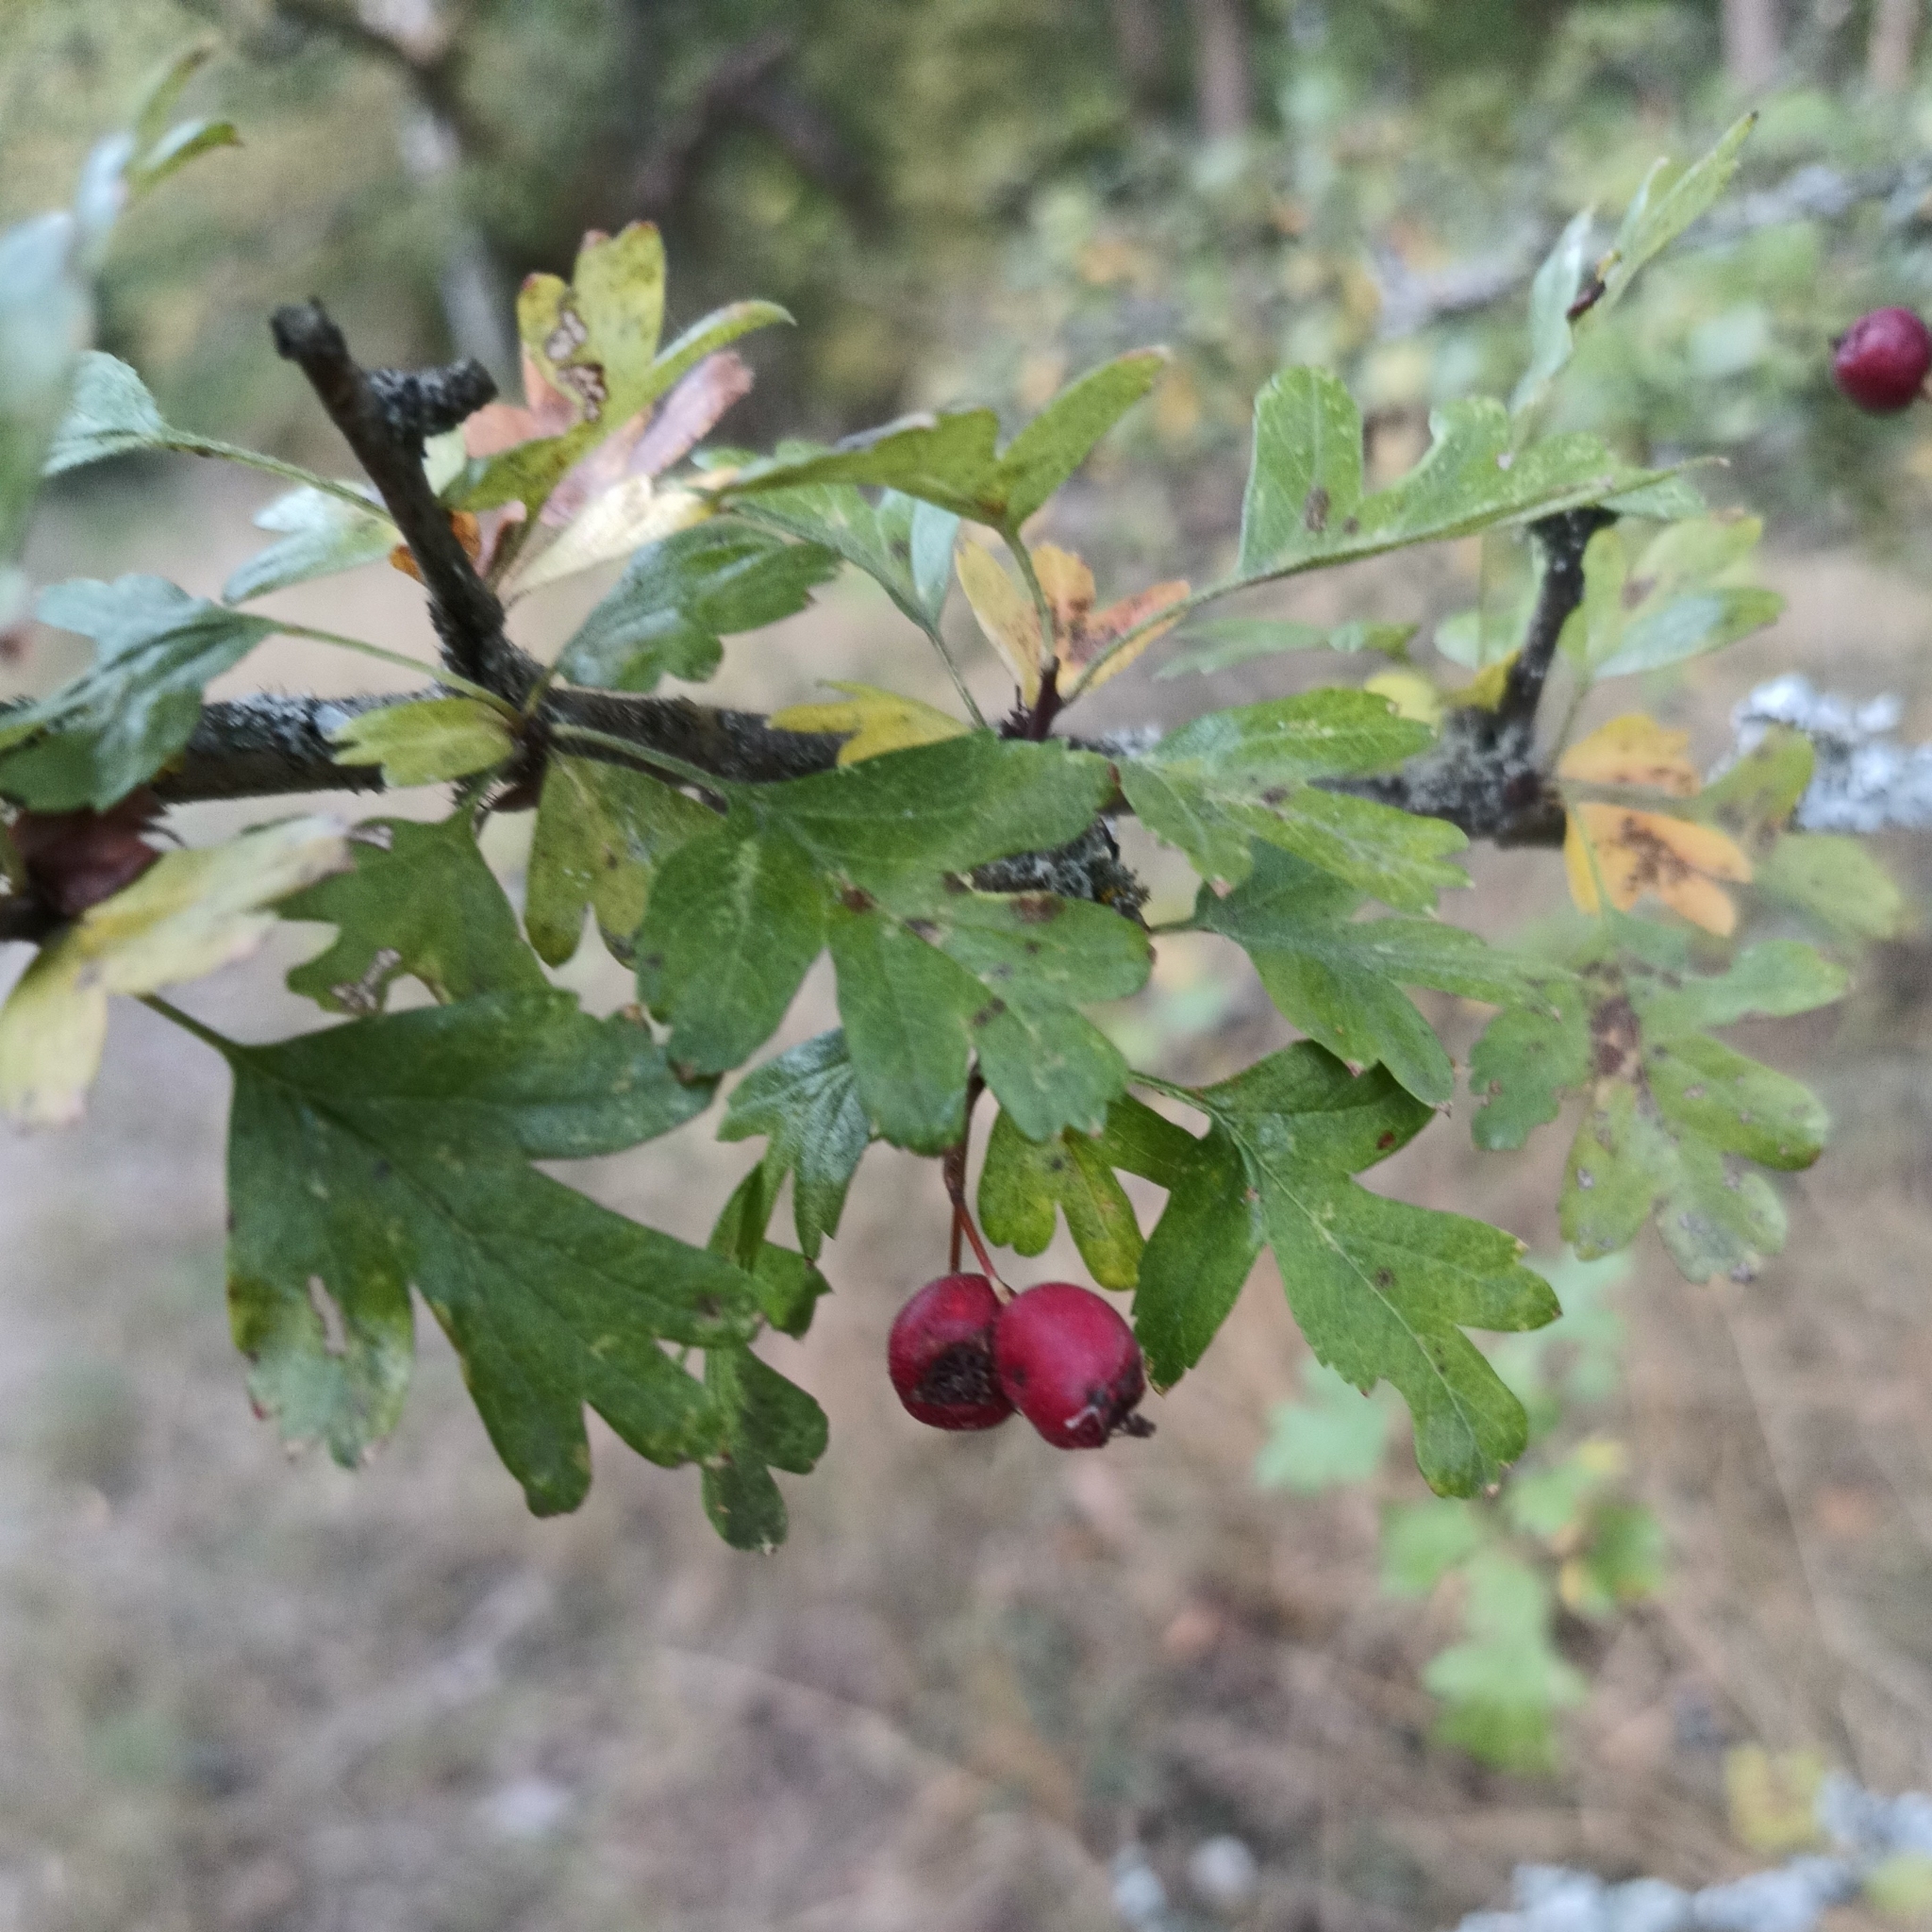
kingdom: Plantae
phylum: Tracheophyta
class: Magnoliopsida
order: Rosales
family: Rosaceae
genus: Crataegus
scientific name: Crataegus monogyna
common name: Hawthorn
